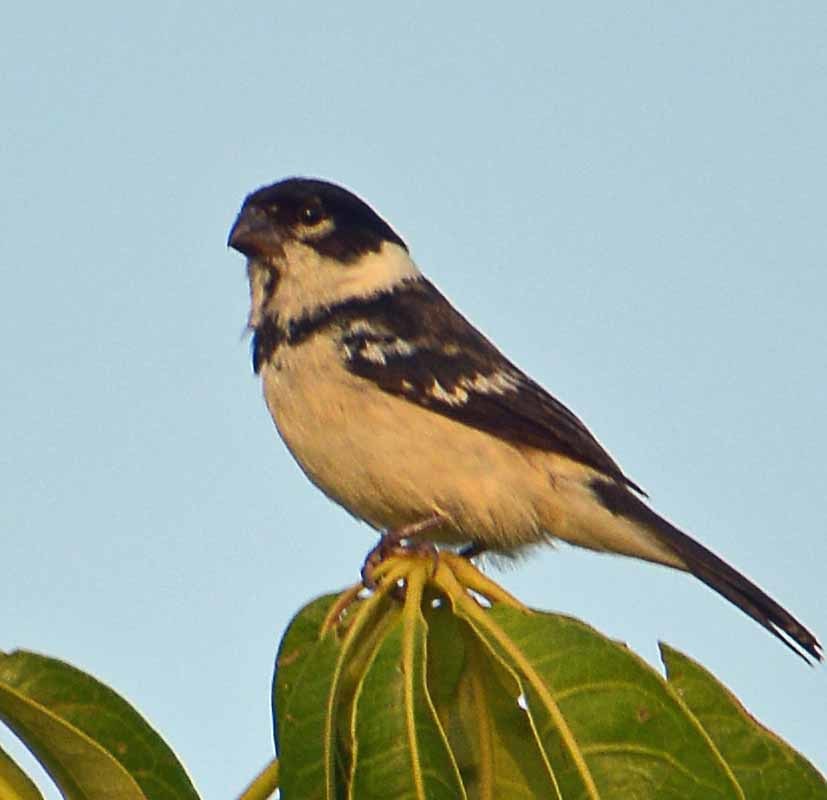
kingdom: Animalia
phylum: Chordata
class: Aves
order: Passeriformes
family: Thraupidae
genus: Sporophila
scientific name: Sporophila morelleti
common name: Morelet's seedeater
